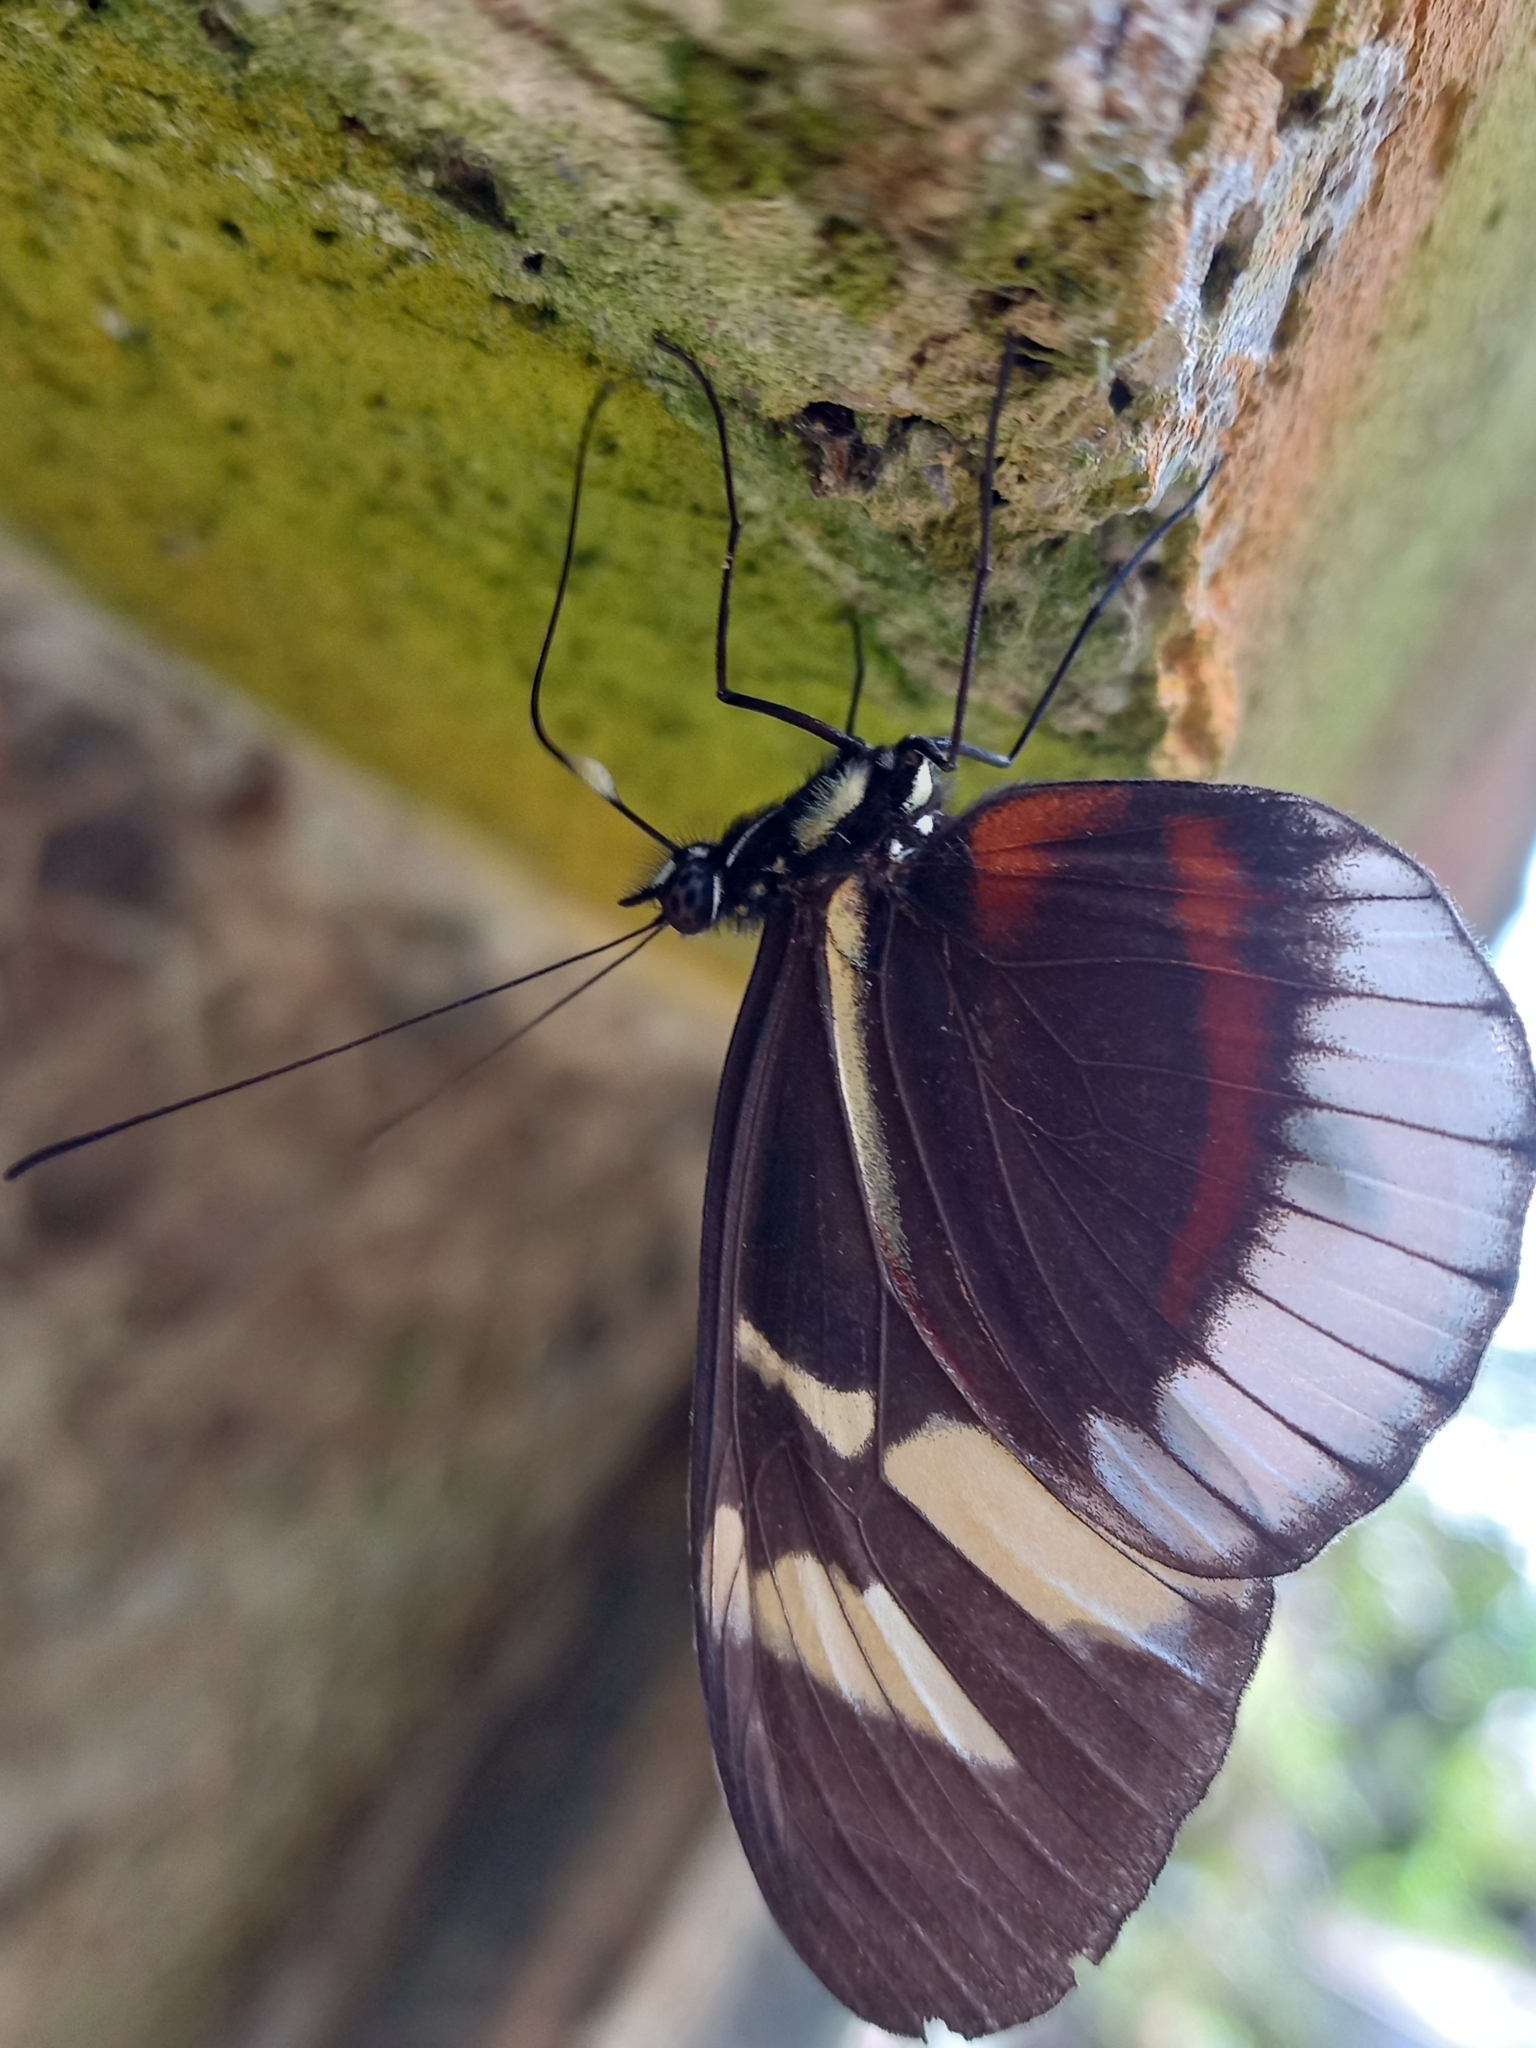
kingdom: Animalia
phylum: Arthropoda
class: Insecta
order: Lepidoptera
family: Nymphalidae
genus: Heliconius
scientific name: Heliconius cydno
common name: Cydno longwing
